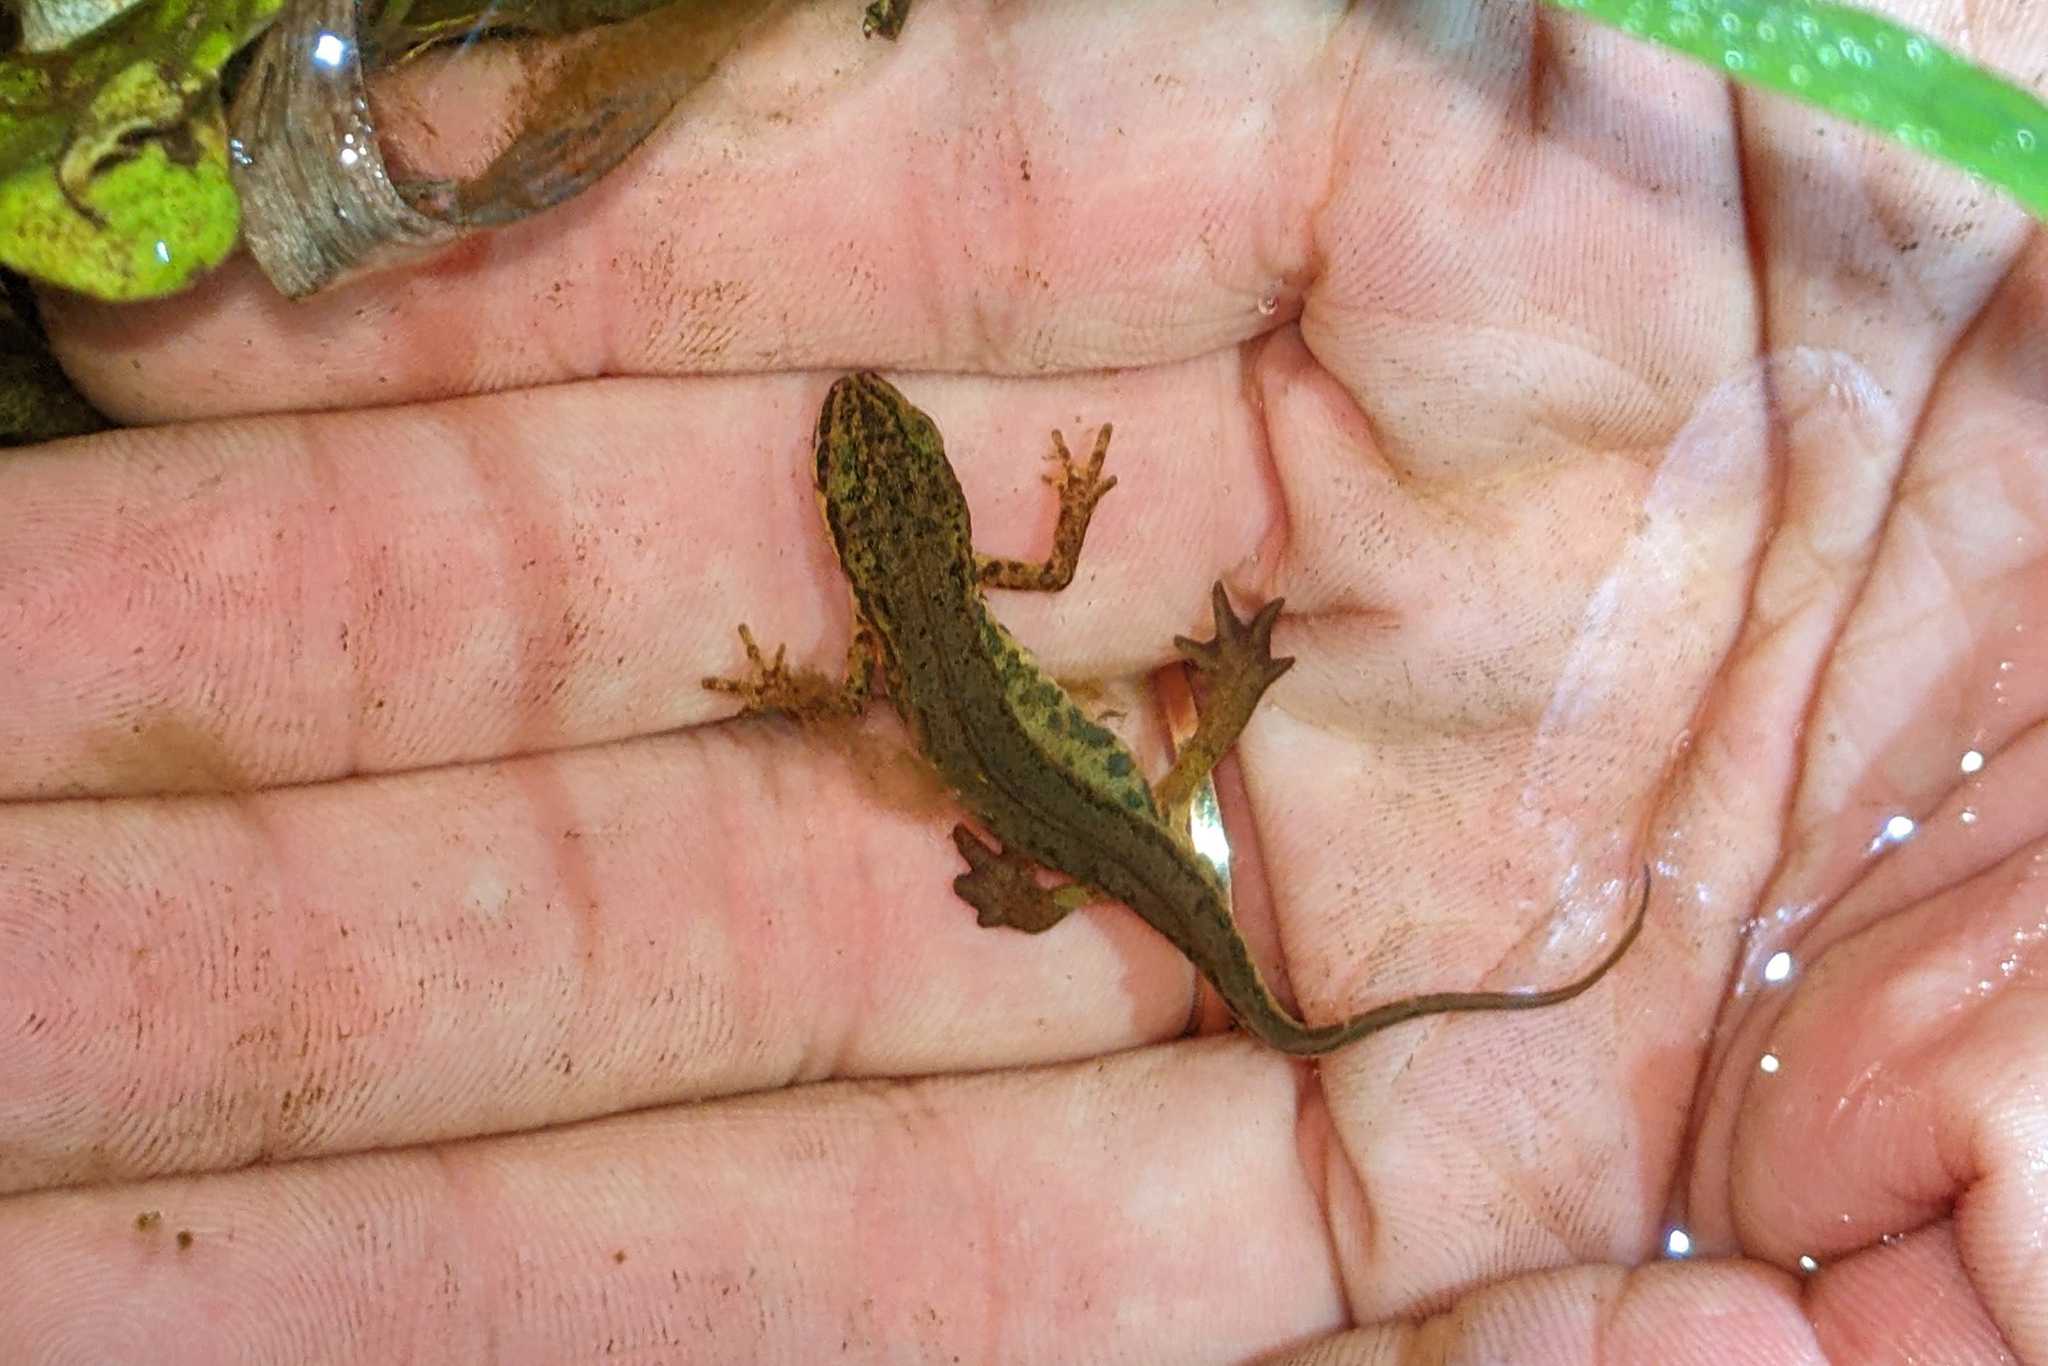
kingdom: Animalia
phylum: Chordata
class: Amphibia
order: Caudata
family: Salamandridae
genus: Lissotriton
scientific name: Lissotriton helveticus
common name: Palmate newt
